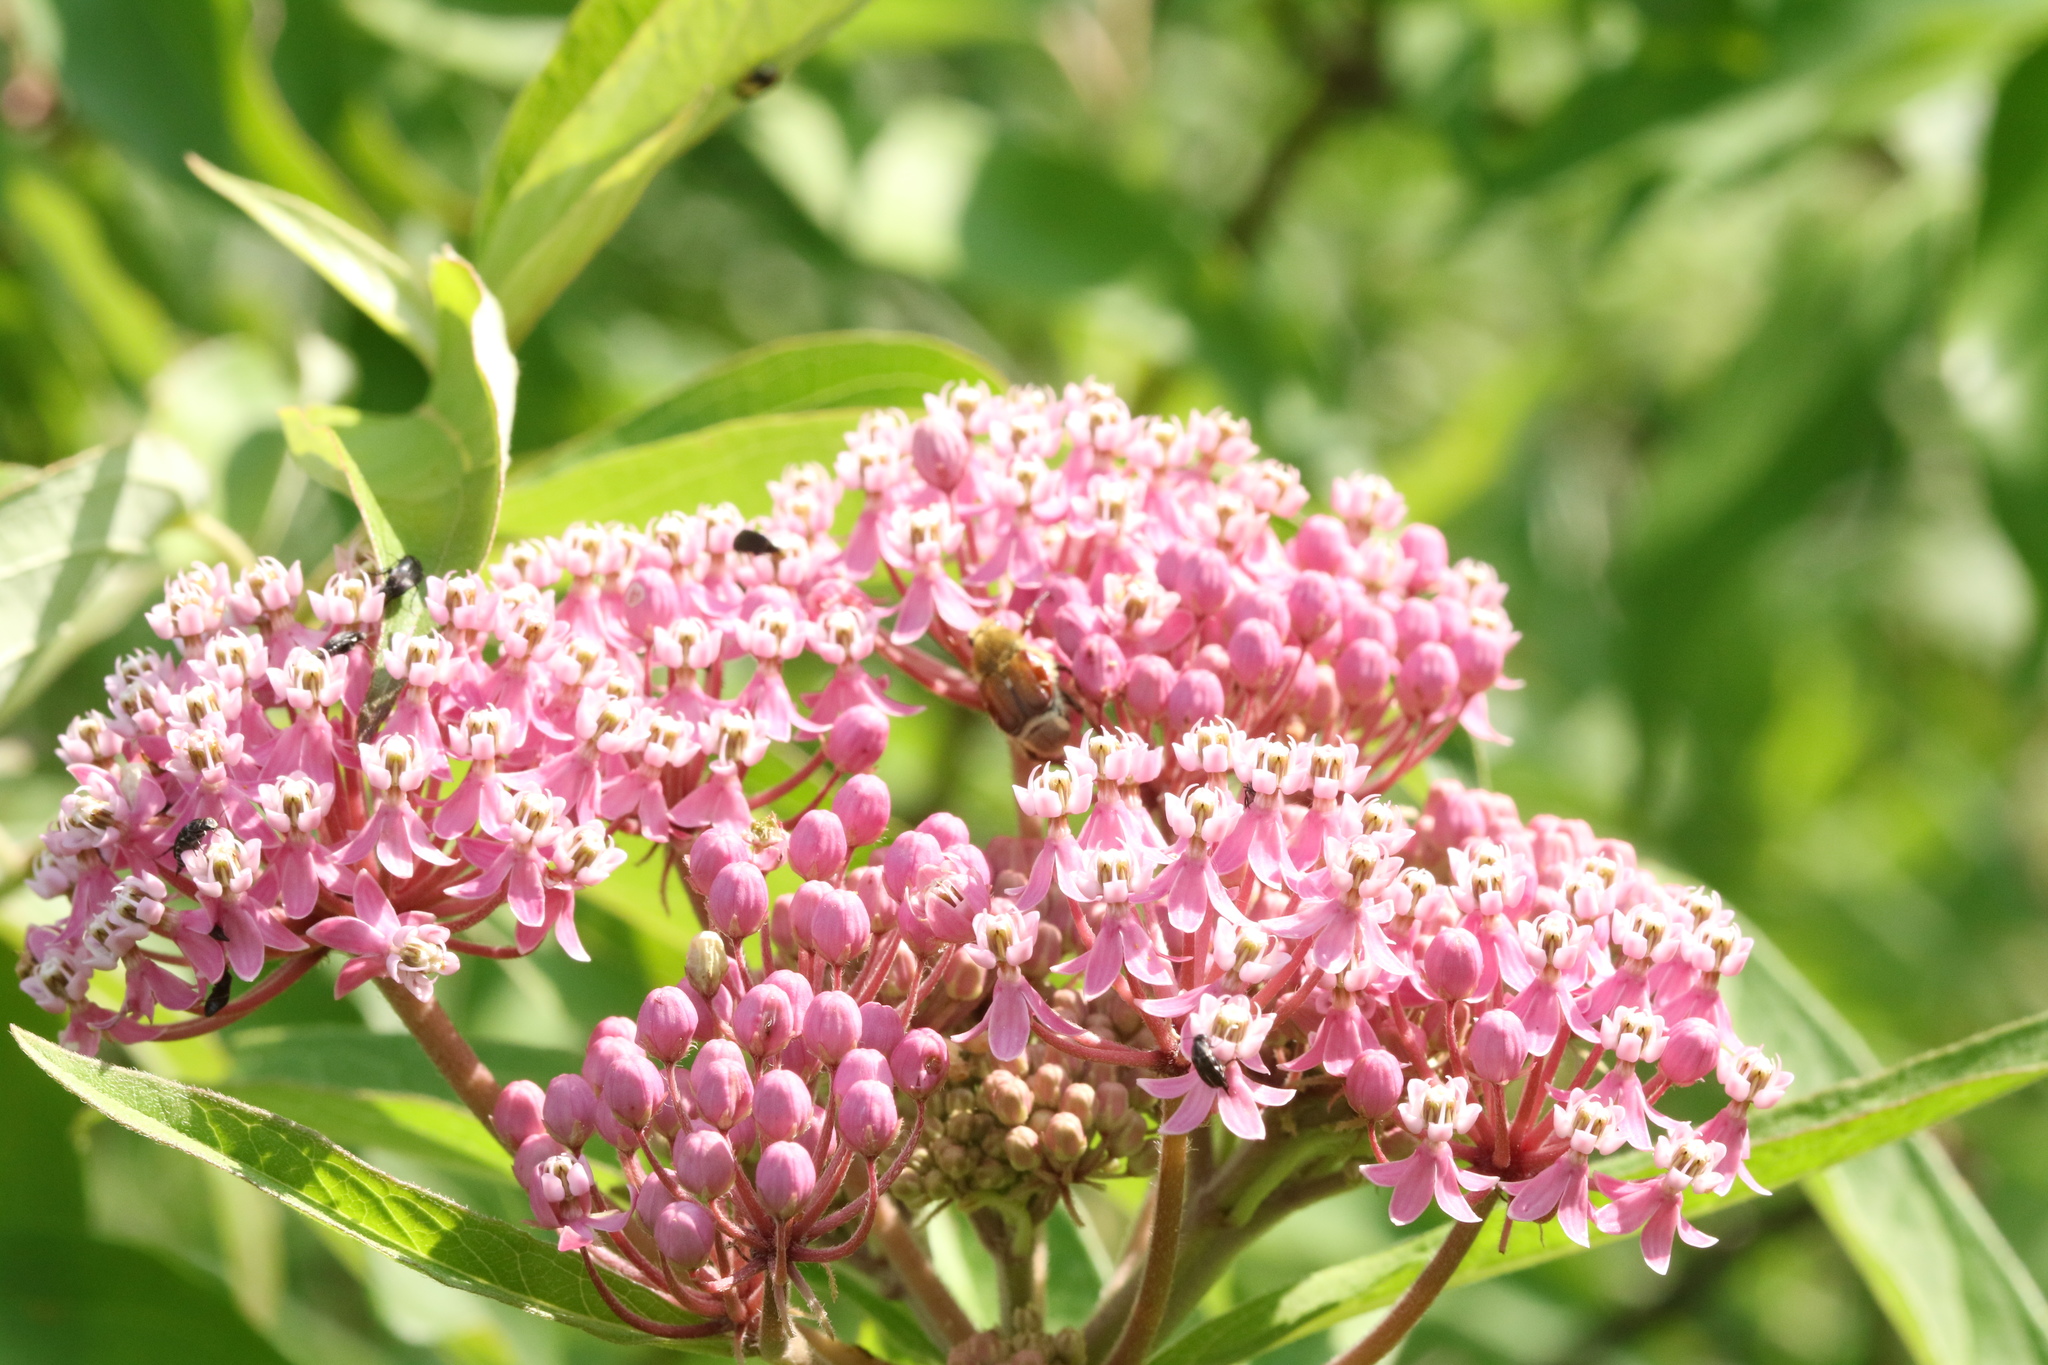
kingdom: Plantae
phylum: Tracheophyta
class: Magnoliopsida
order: Gentianales
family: Apocynaceae
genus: Asclepias
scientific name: Asclepias incarnata
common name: Swamp milkweed
